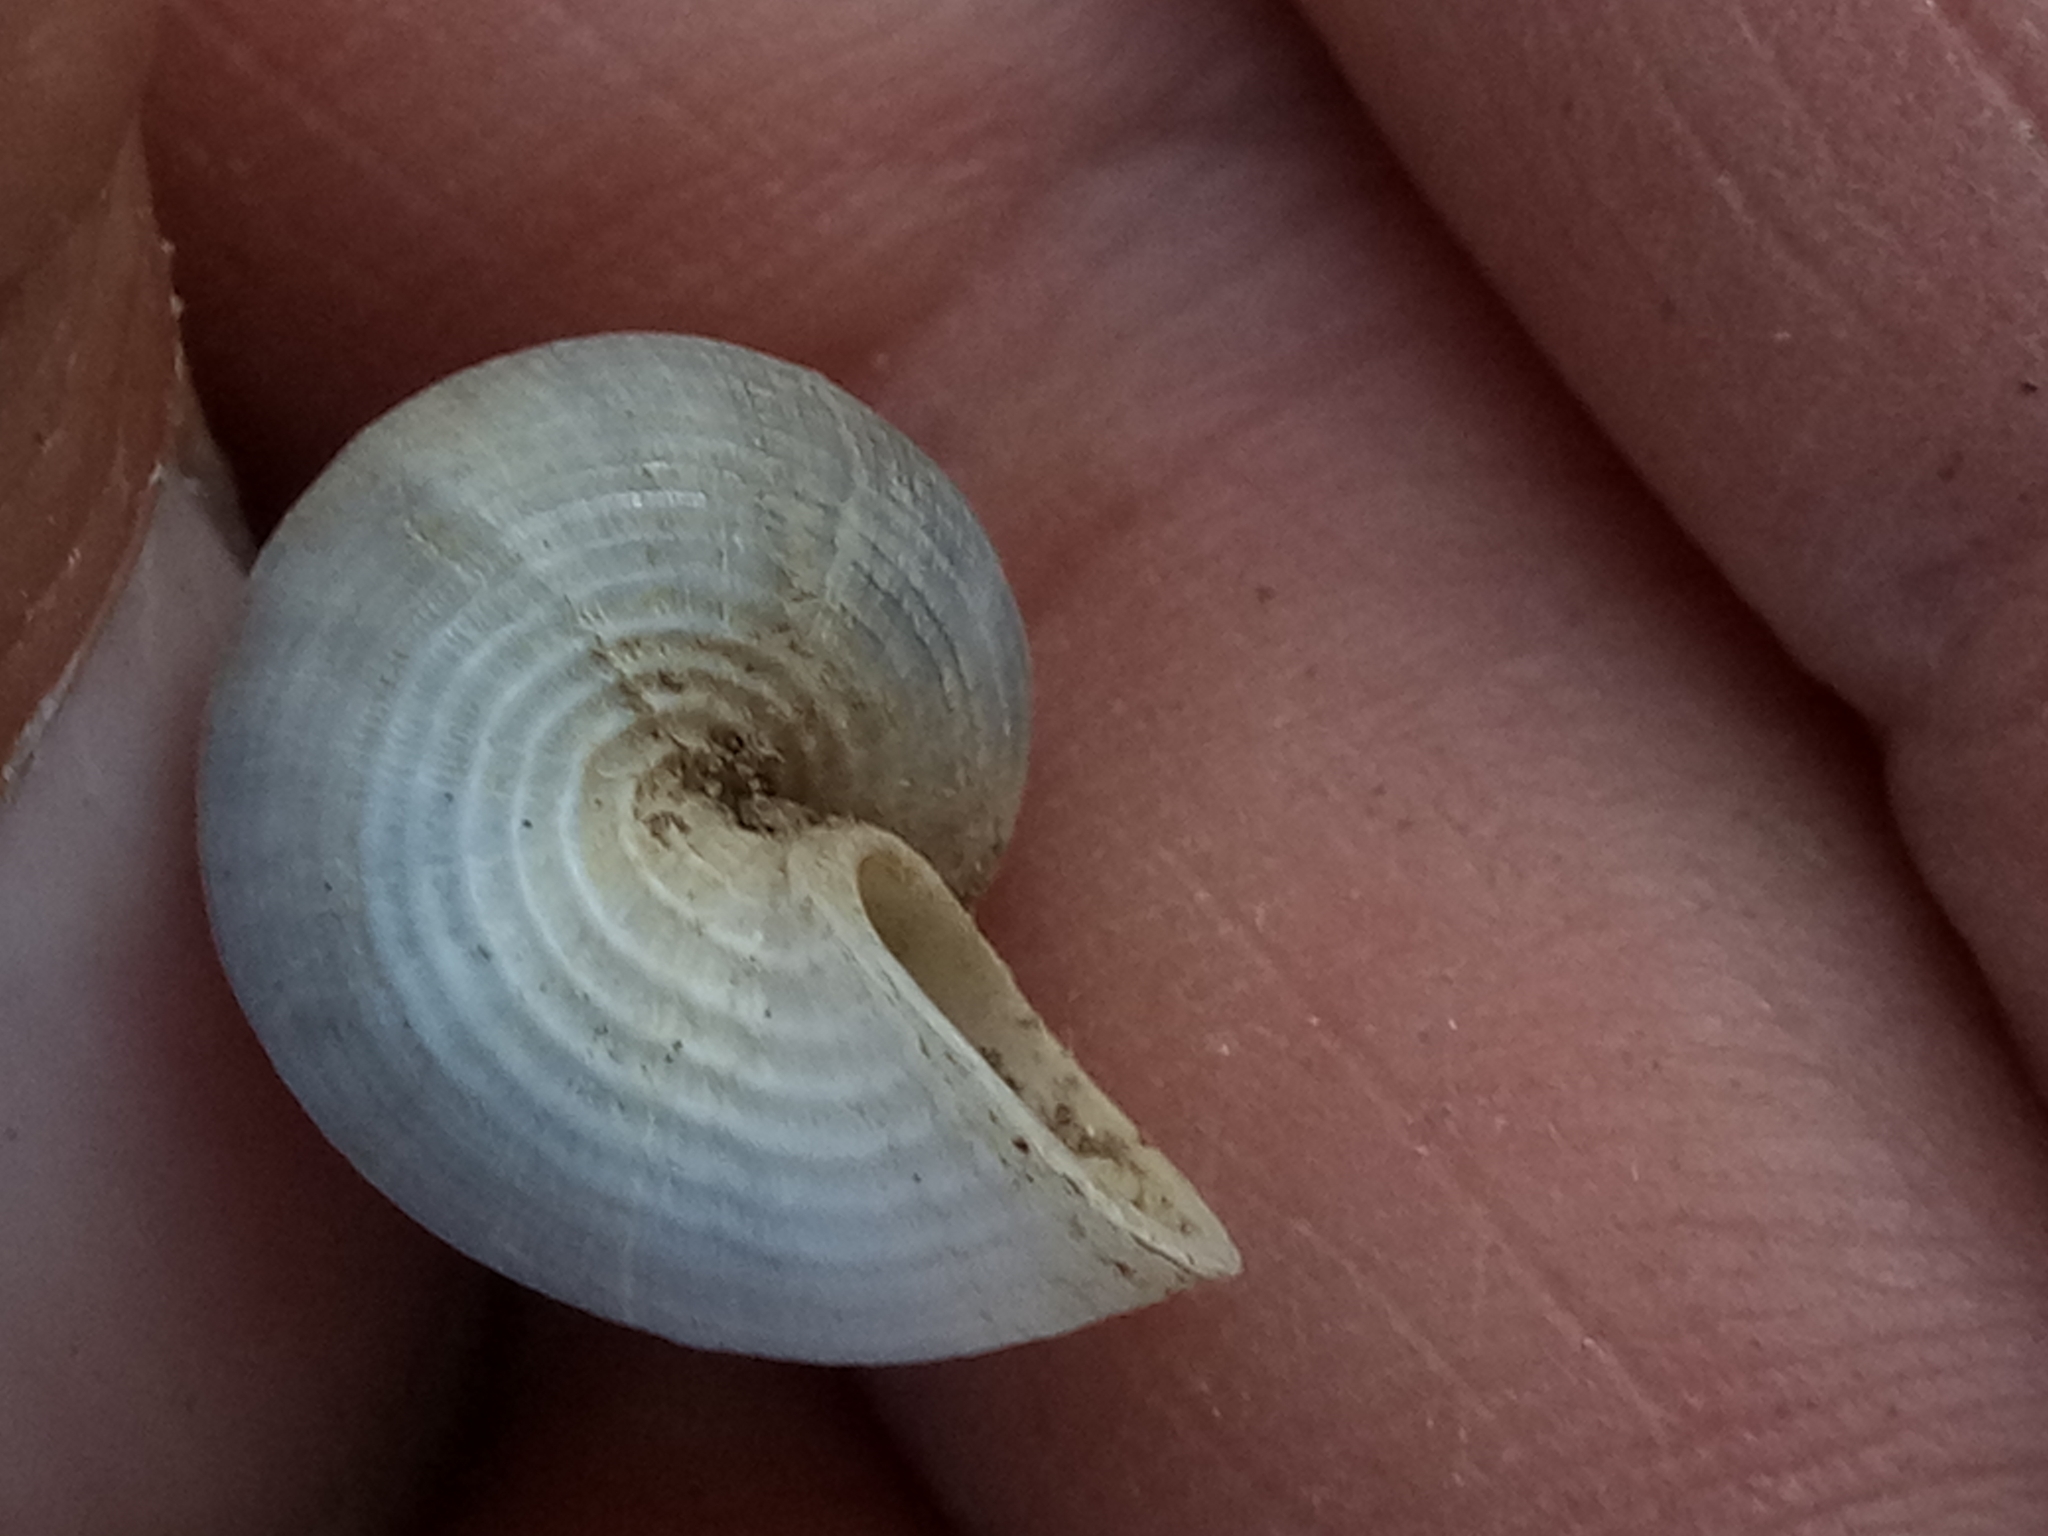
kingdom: Animalia
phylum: Mollusca
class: Gastropoda
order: Littorinimorpha
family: Pomatiidae
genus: Tudorella
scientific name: Tudorella sulcata
